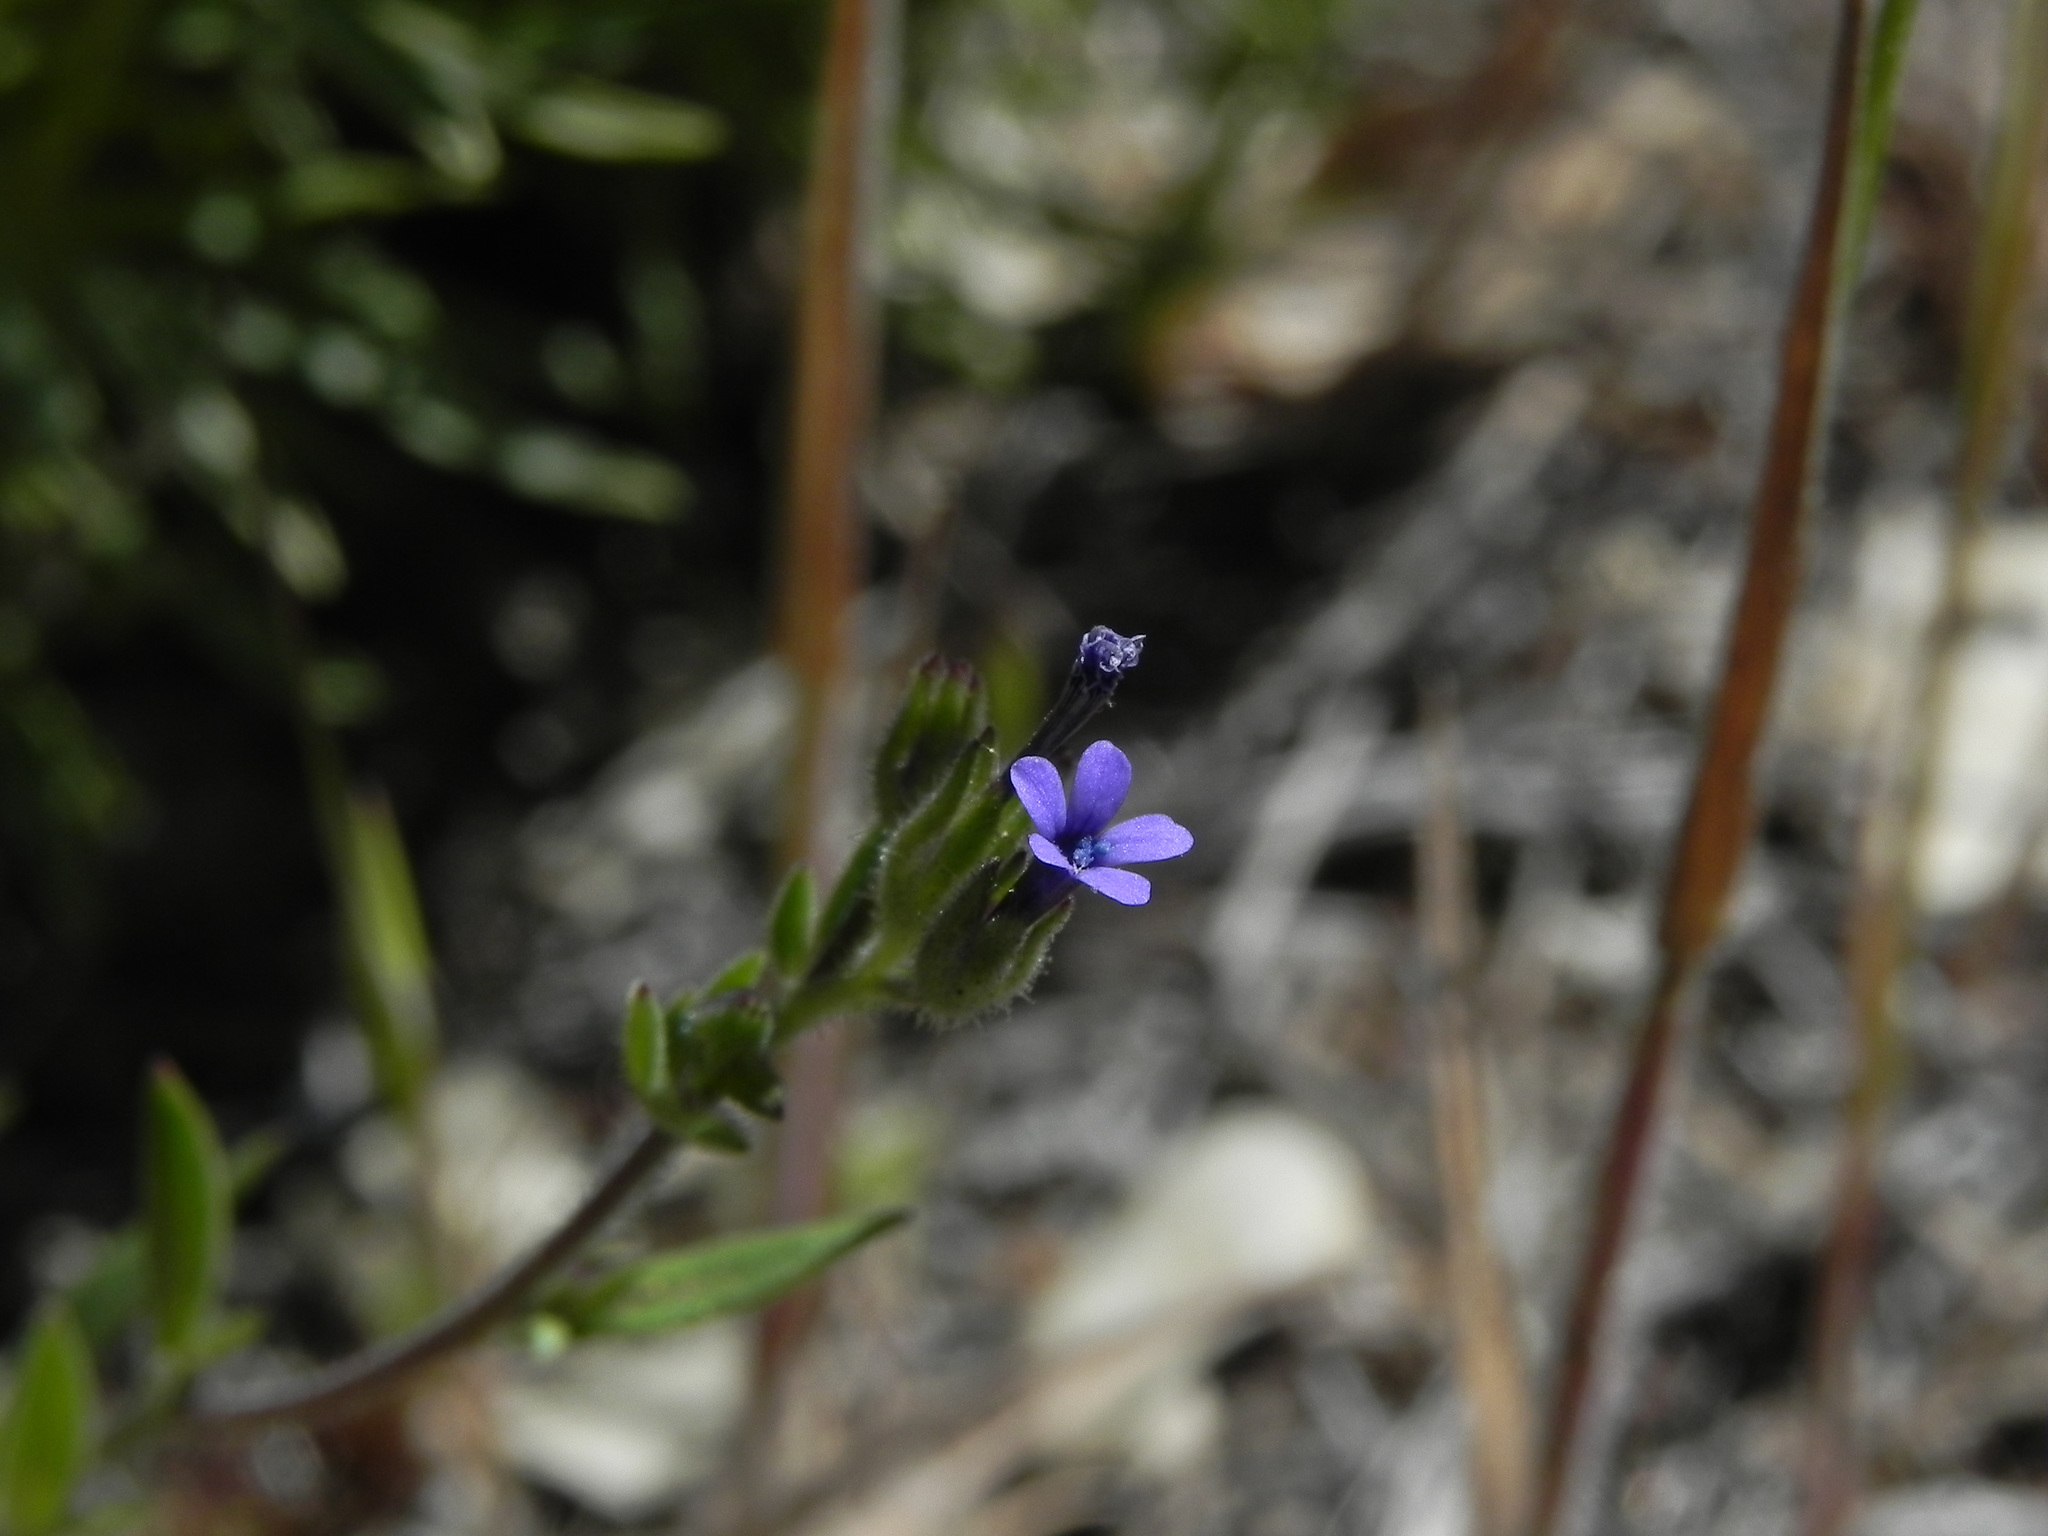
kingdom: Plantae
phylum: Tracheophyta
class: Magnoliopsida
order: Ericales
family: Polemoniaceae
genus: Allophyllum
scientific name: Allophyllum gilioides
